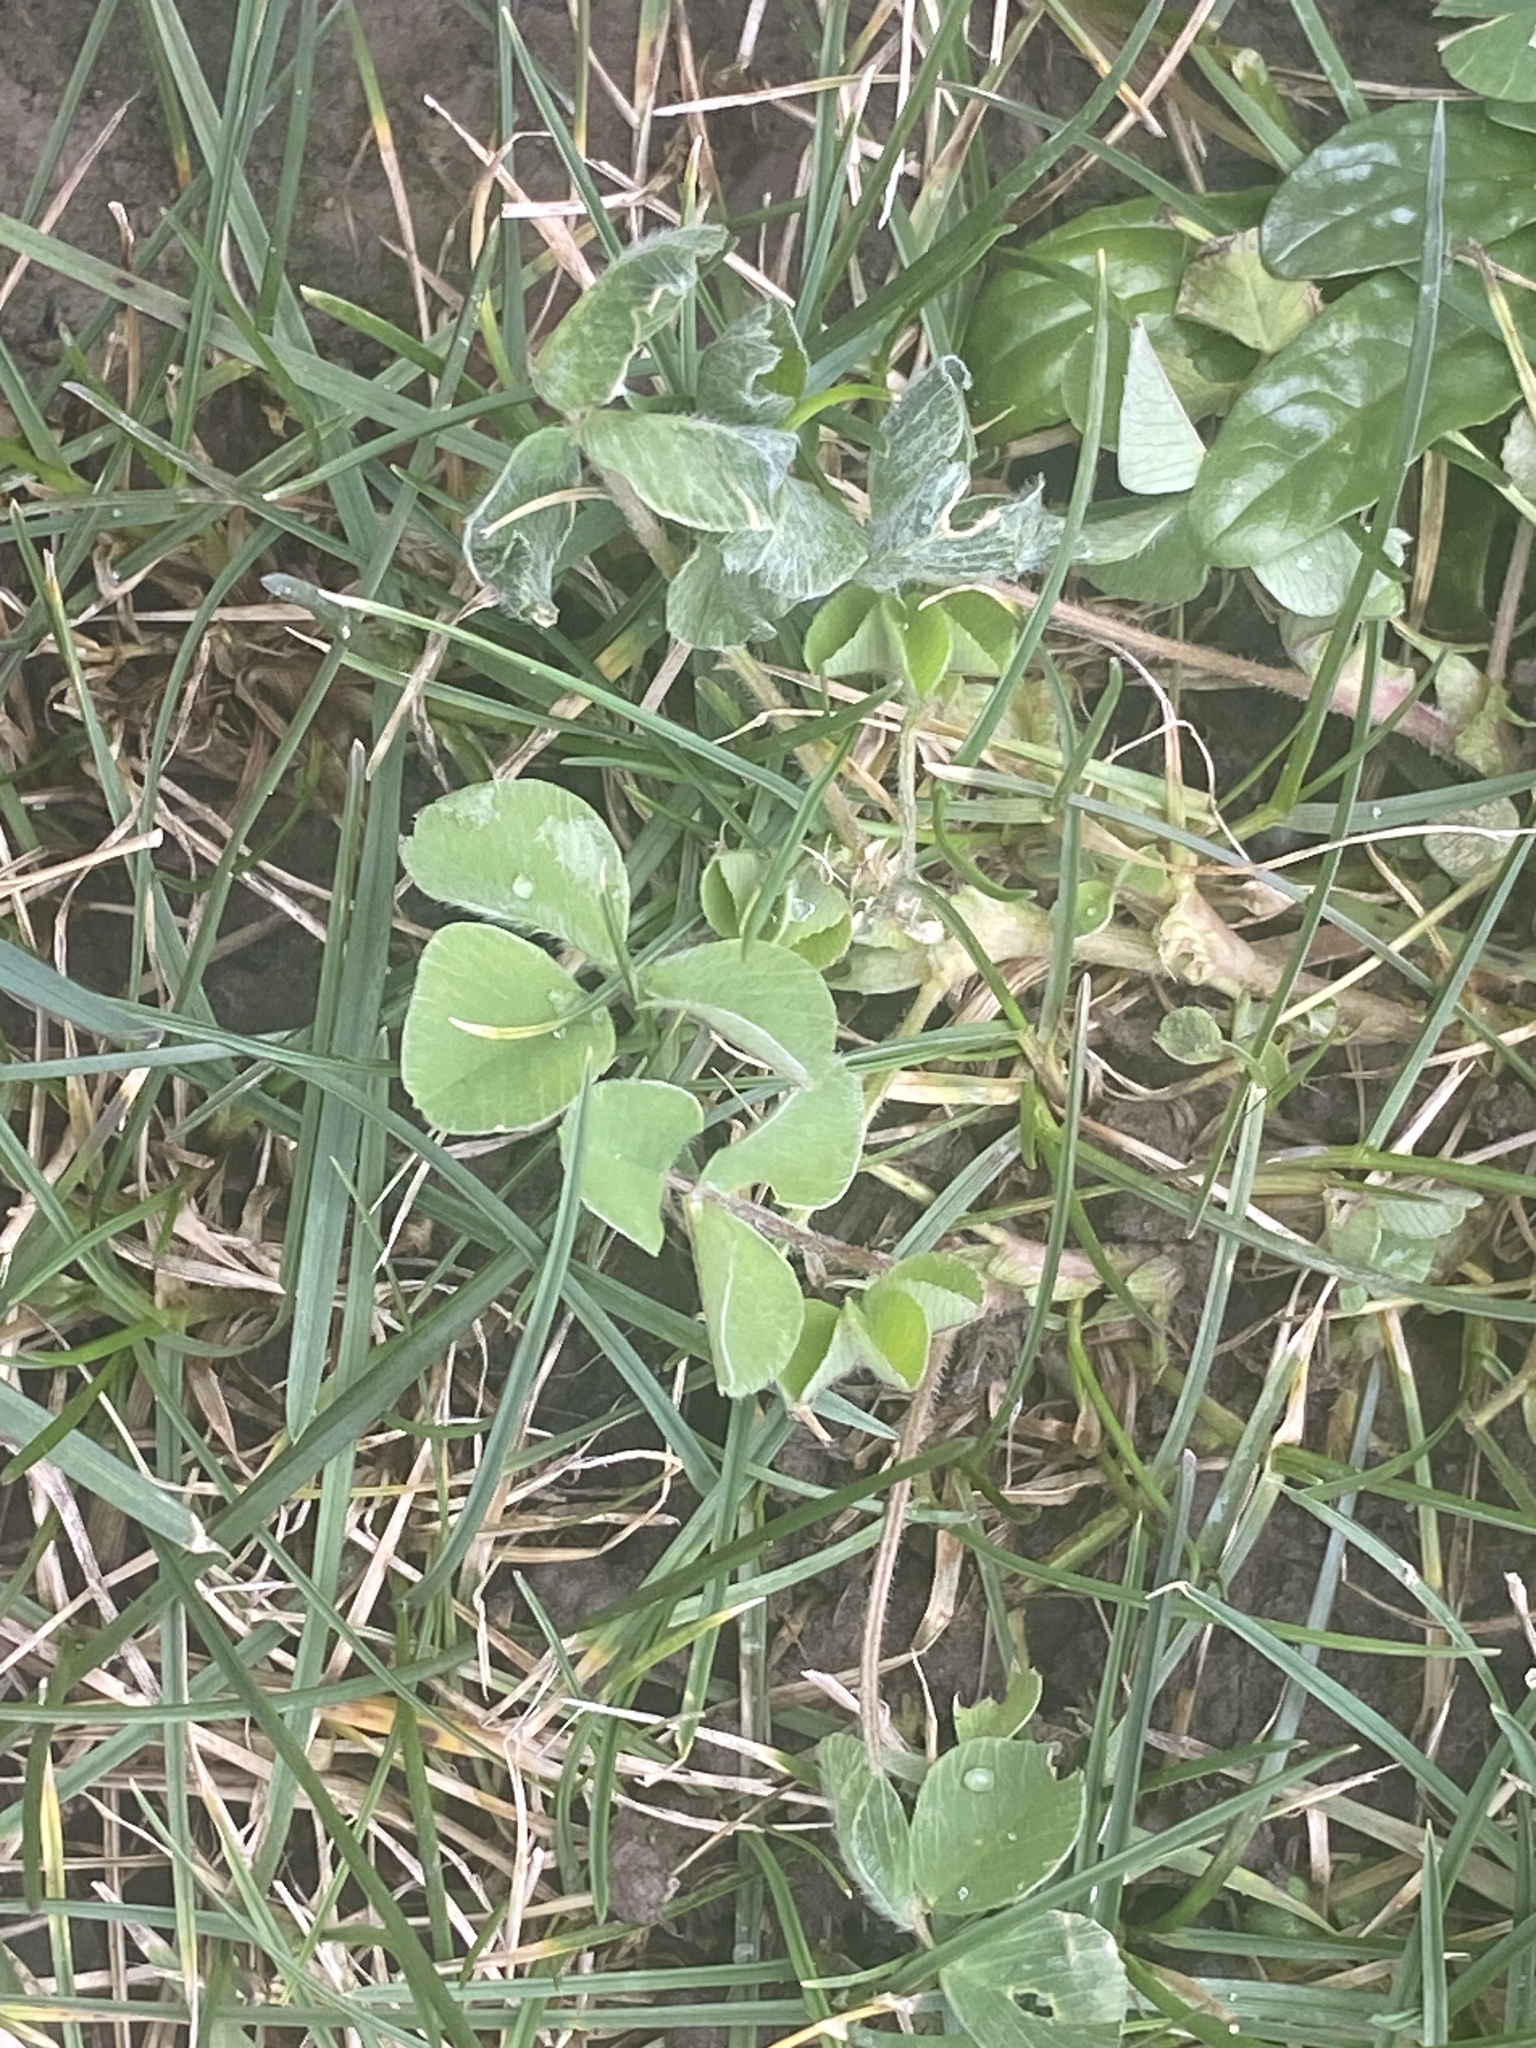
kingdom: Plantae
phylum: Tracheophyta
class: Magnoliopsida
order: Fabales
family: Fabaceae
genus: Medicago
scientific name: Medicago lupulina
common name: Black medick
